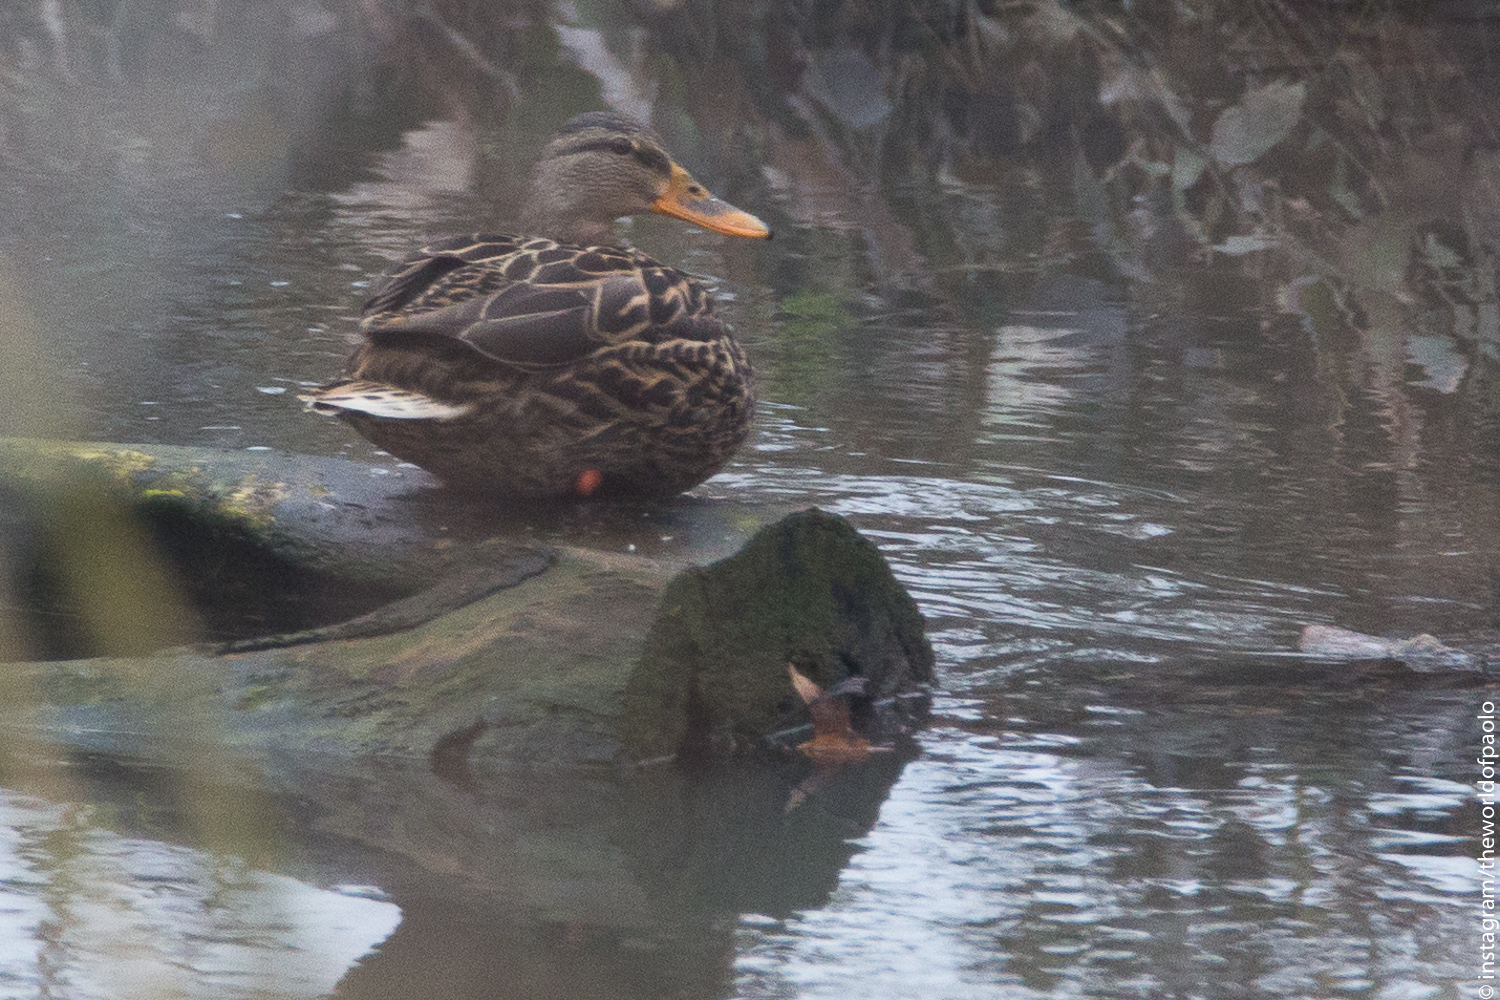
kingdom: Animalia
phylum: Chordata
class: Aves
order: Anseriformes
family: Anatidae
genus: Anas
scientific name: Anas platyrhynchos
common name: Mallard
